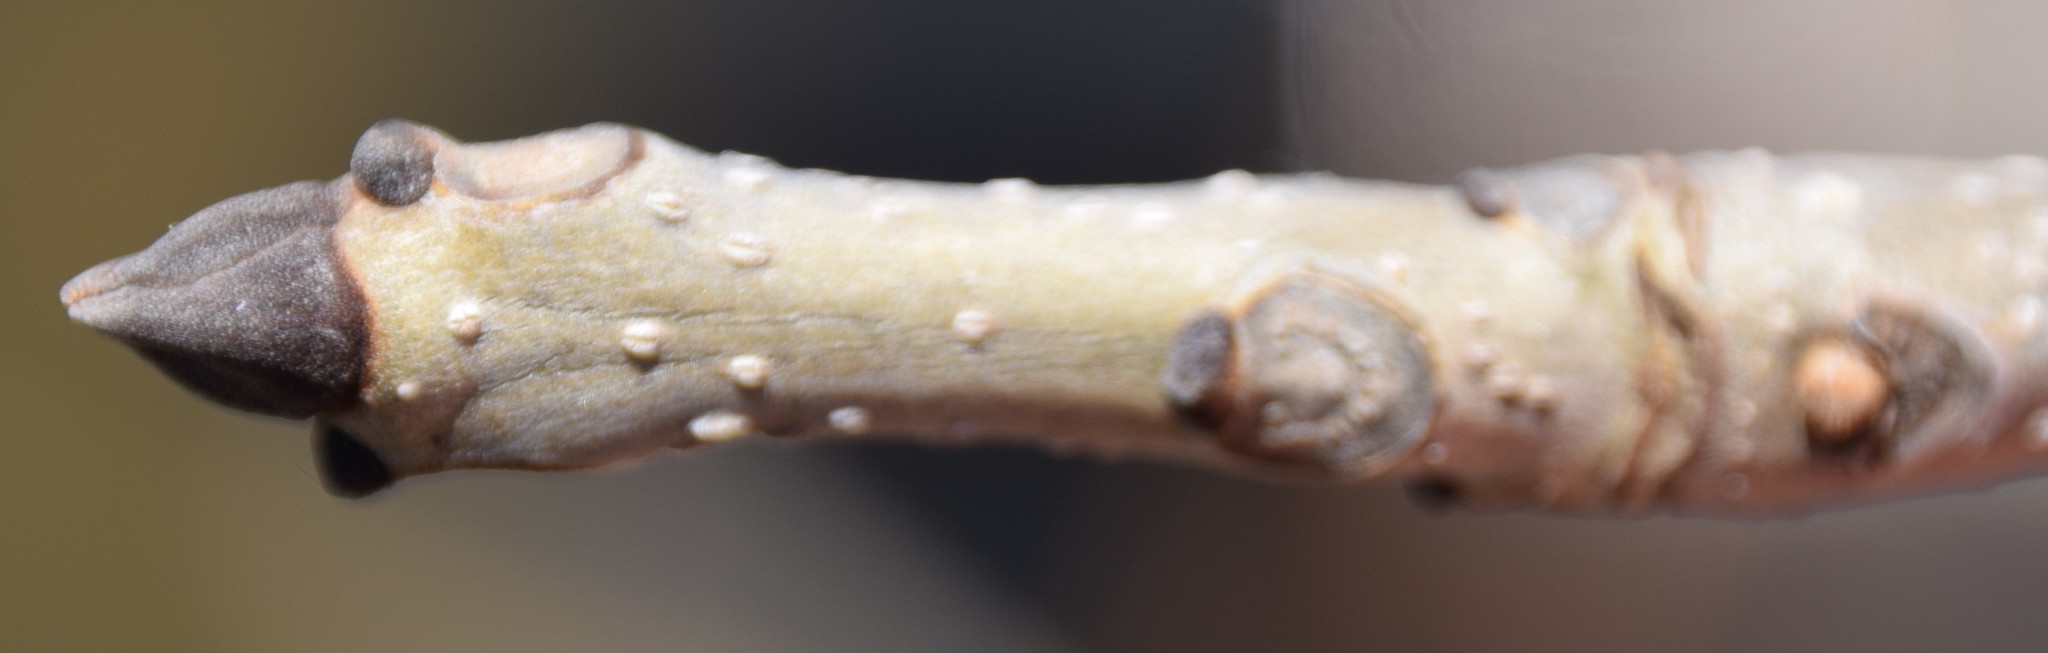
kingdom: Plantae
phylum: Tracheophyta
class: Magnoliopsida
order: Lamiales
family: Oleaceae
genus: Fraxinus
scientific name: Fraxinus nigra
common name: Black ash
